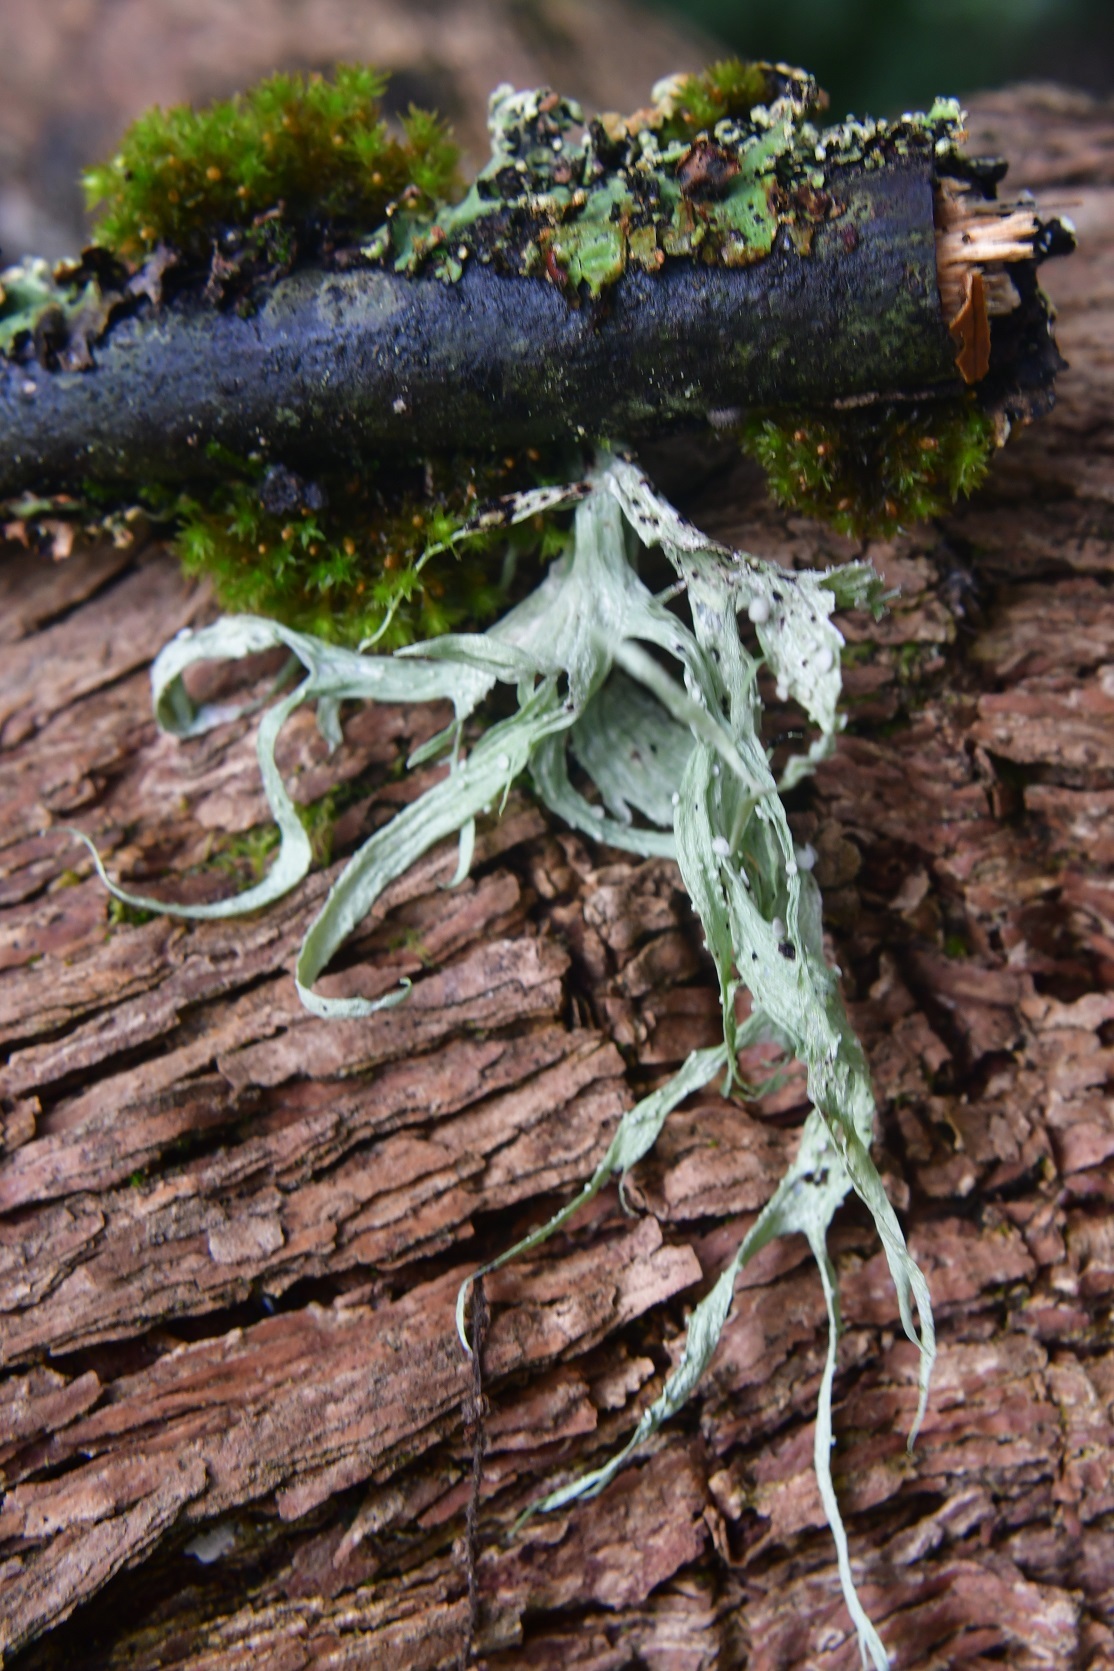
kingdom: Fungi
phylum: Ascomycota
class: Lecanoromycetes
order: Lecanorales
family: Ramalinaceae
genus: Ramalina
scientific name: Ramalina celastri
